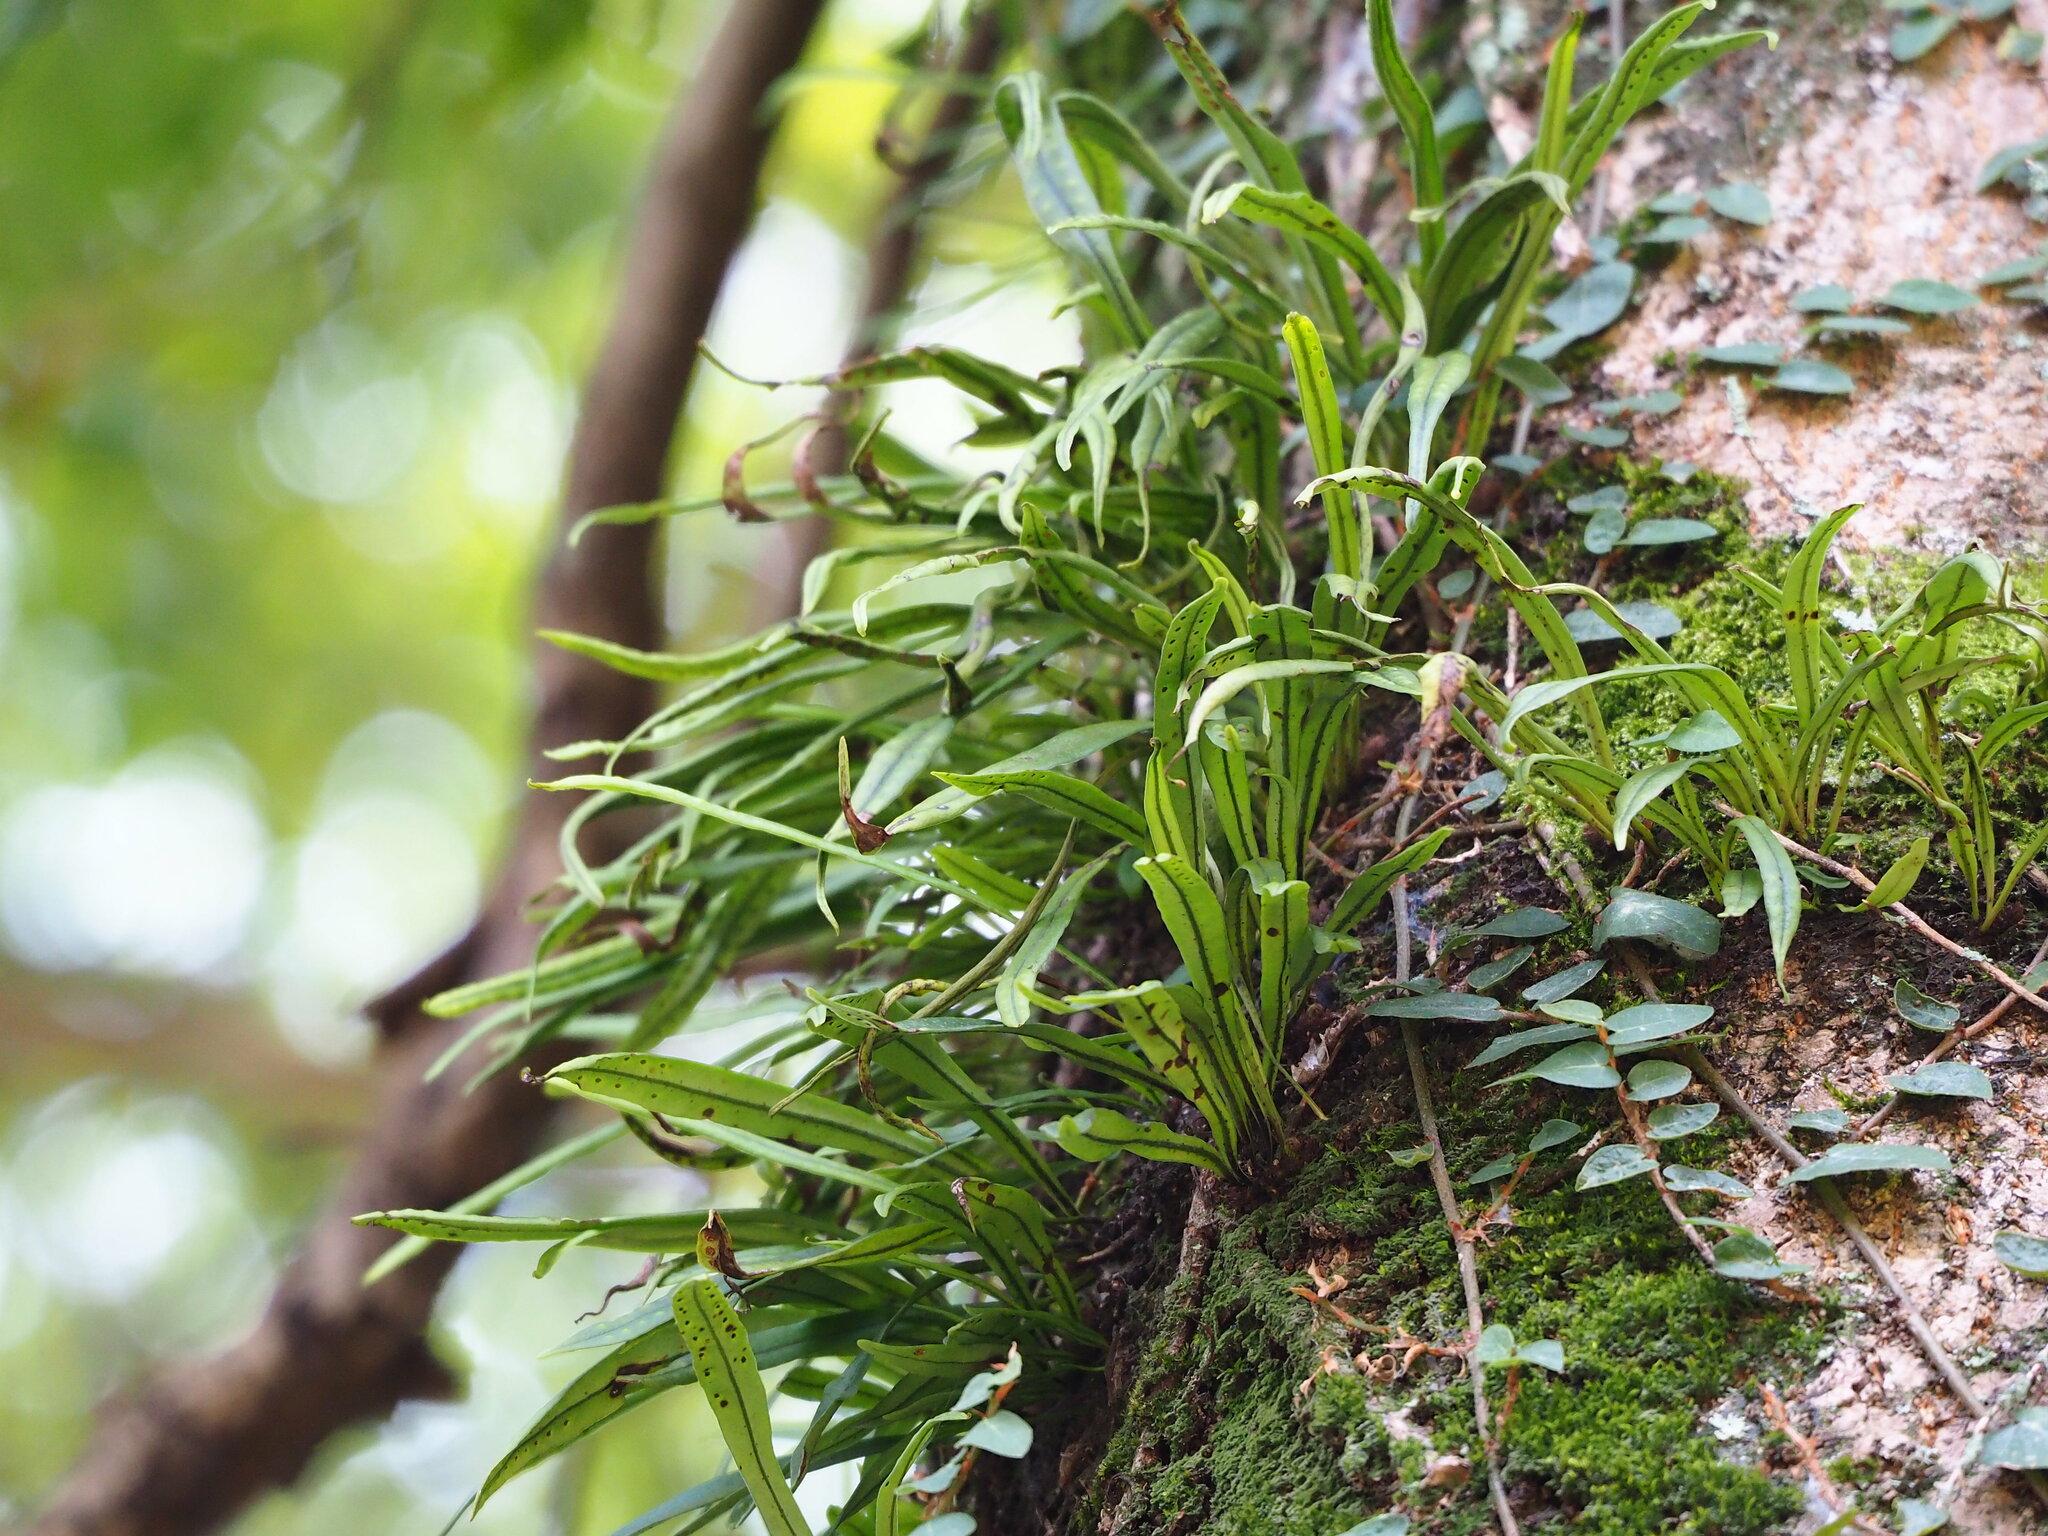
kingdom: Plantae
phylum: Tracheophyta
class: Polypodiopsida
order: Polypodiales
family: Polypodiaceae
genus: Lepisorus
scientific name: Lepisorus thunbergianus
